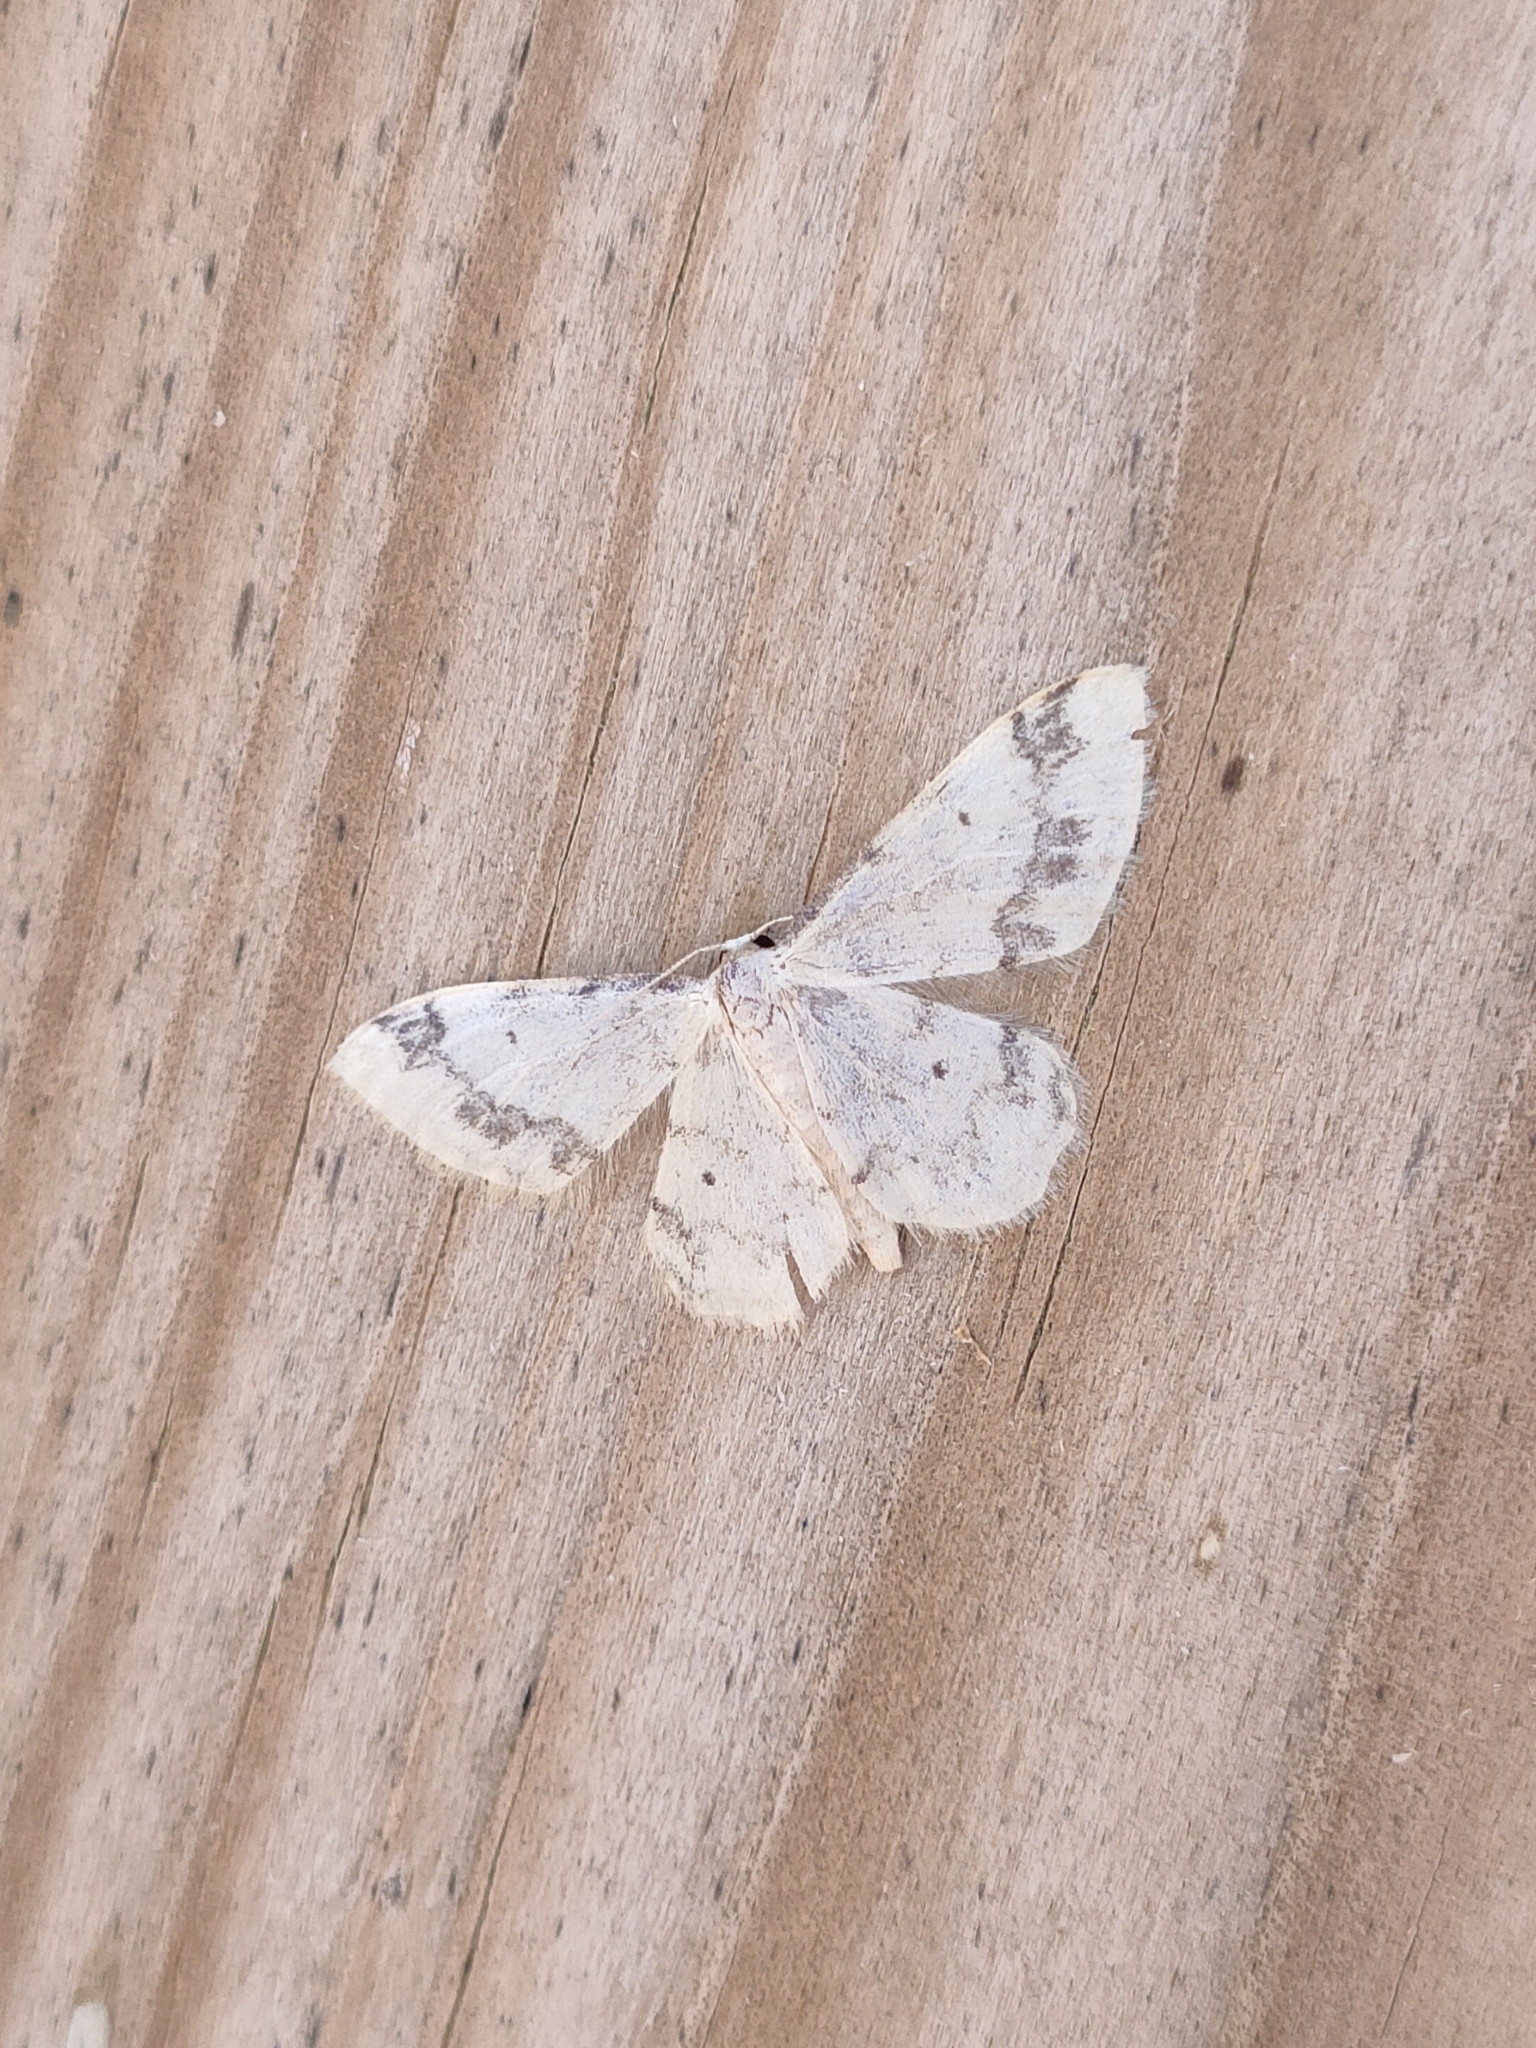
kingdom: Animalia
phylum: Arthropoda
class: Insecta
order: Lepidoptera
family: Geometridae
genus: Idaea
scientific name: Idaea trigeminata
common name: Treble brown spot
